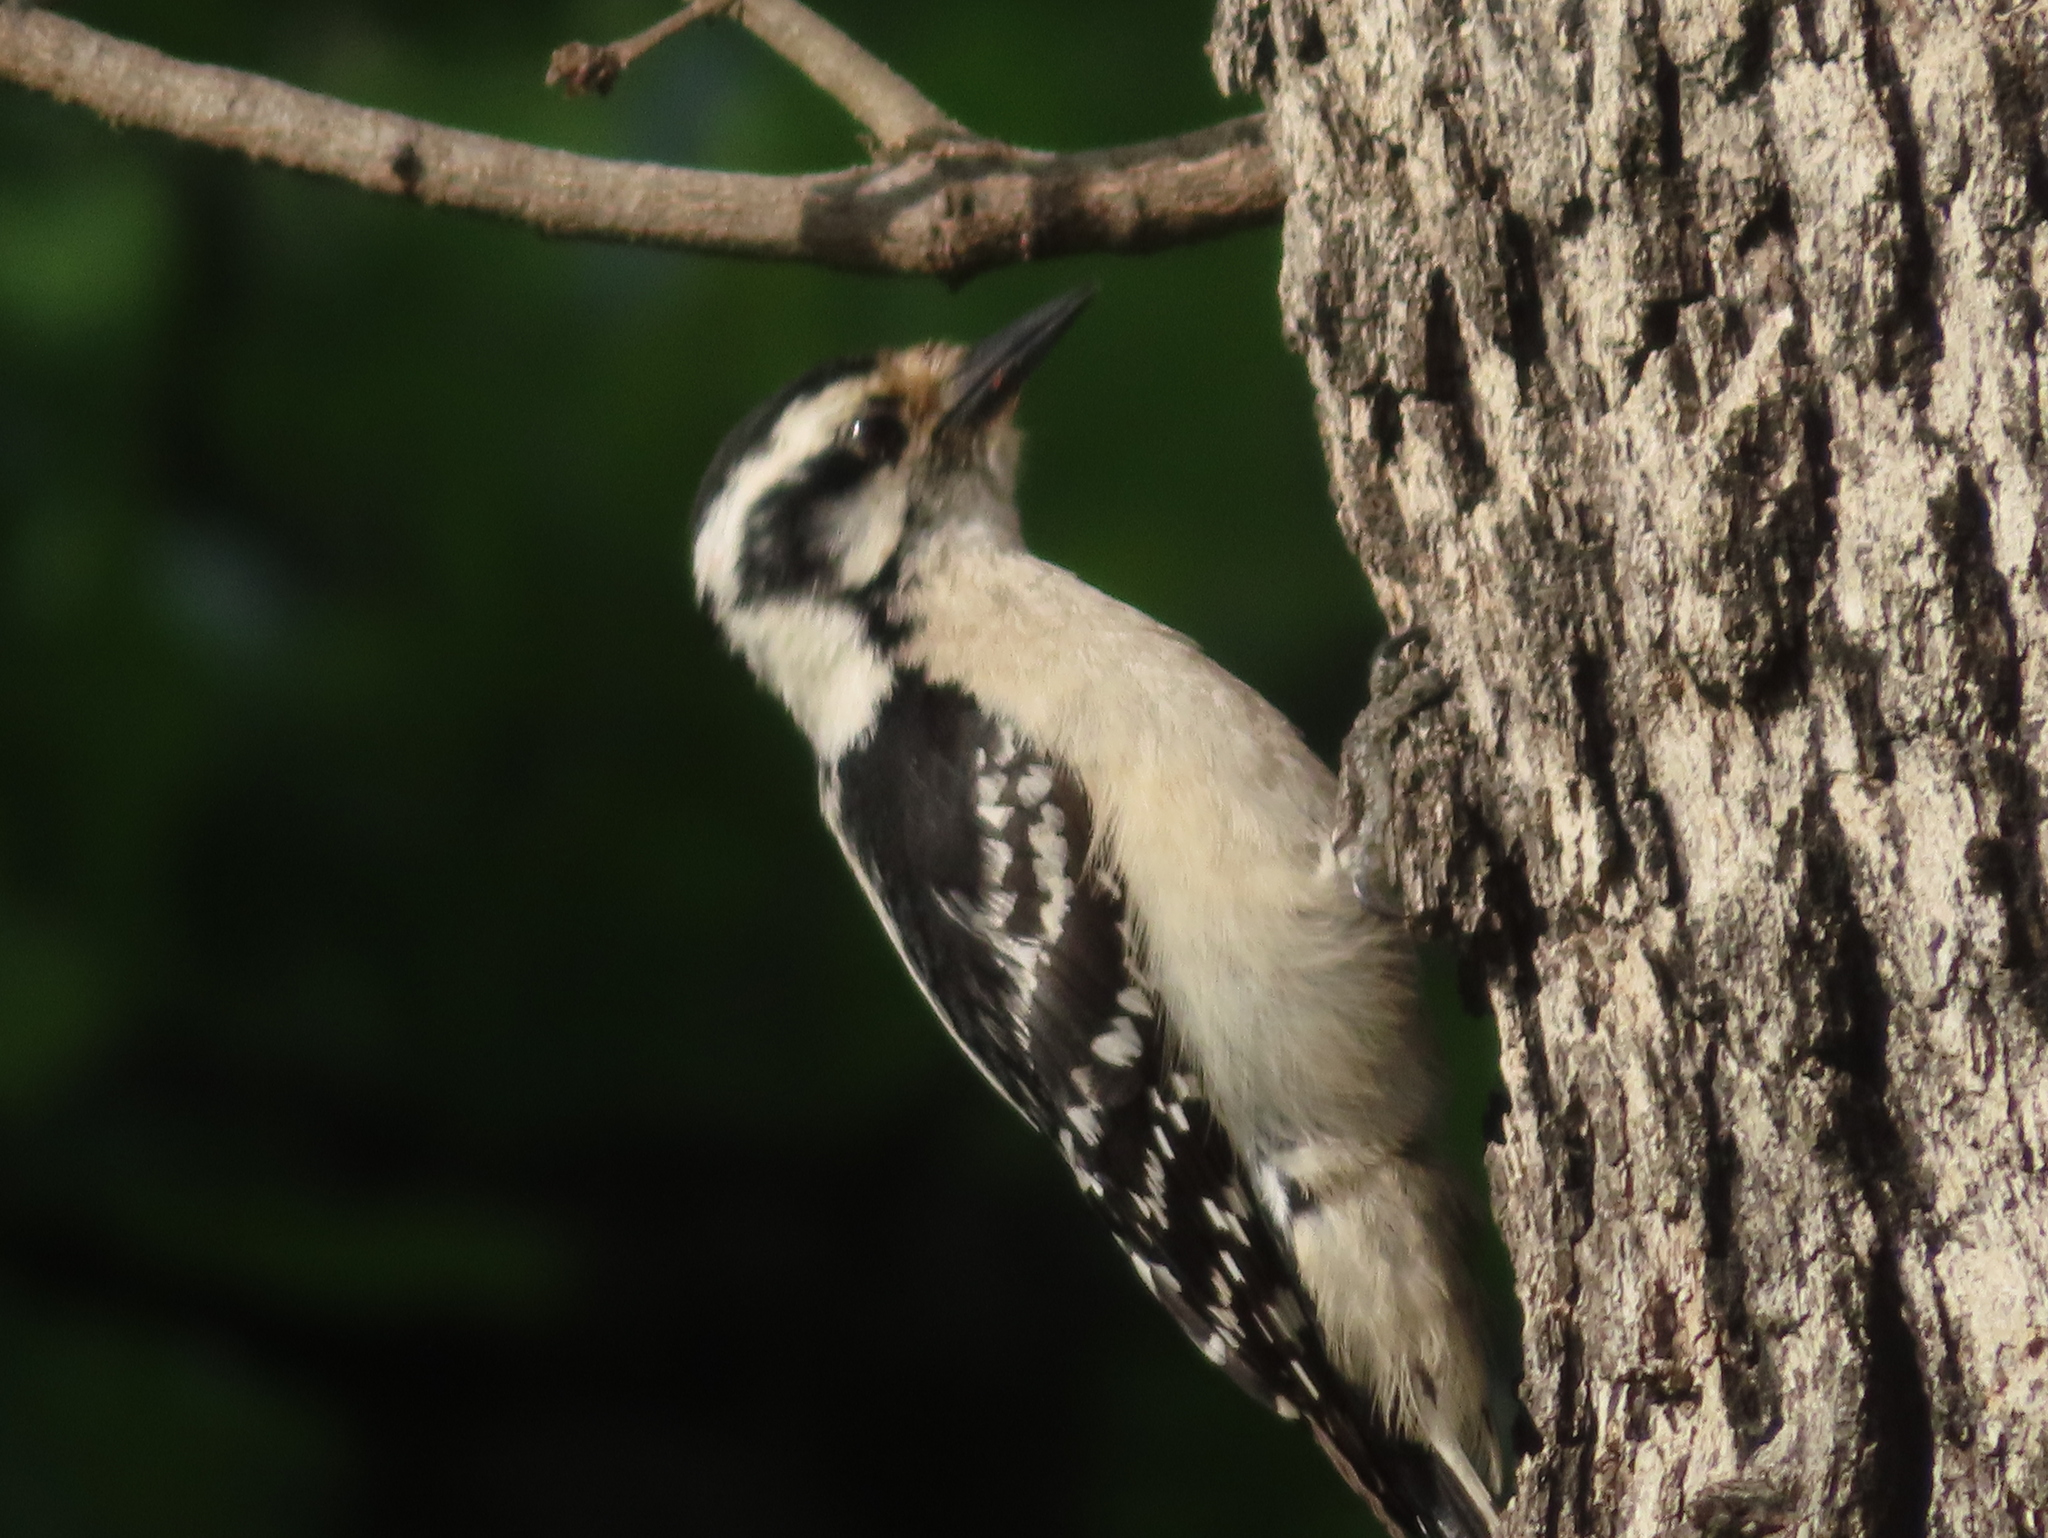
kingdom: Animalia
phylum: Chordata
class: Aves
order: Piciformes
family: Picidae
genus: Dryobates
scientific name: Dryobates pubescens
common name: Downy woodpecker
